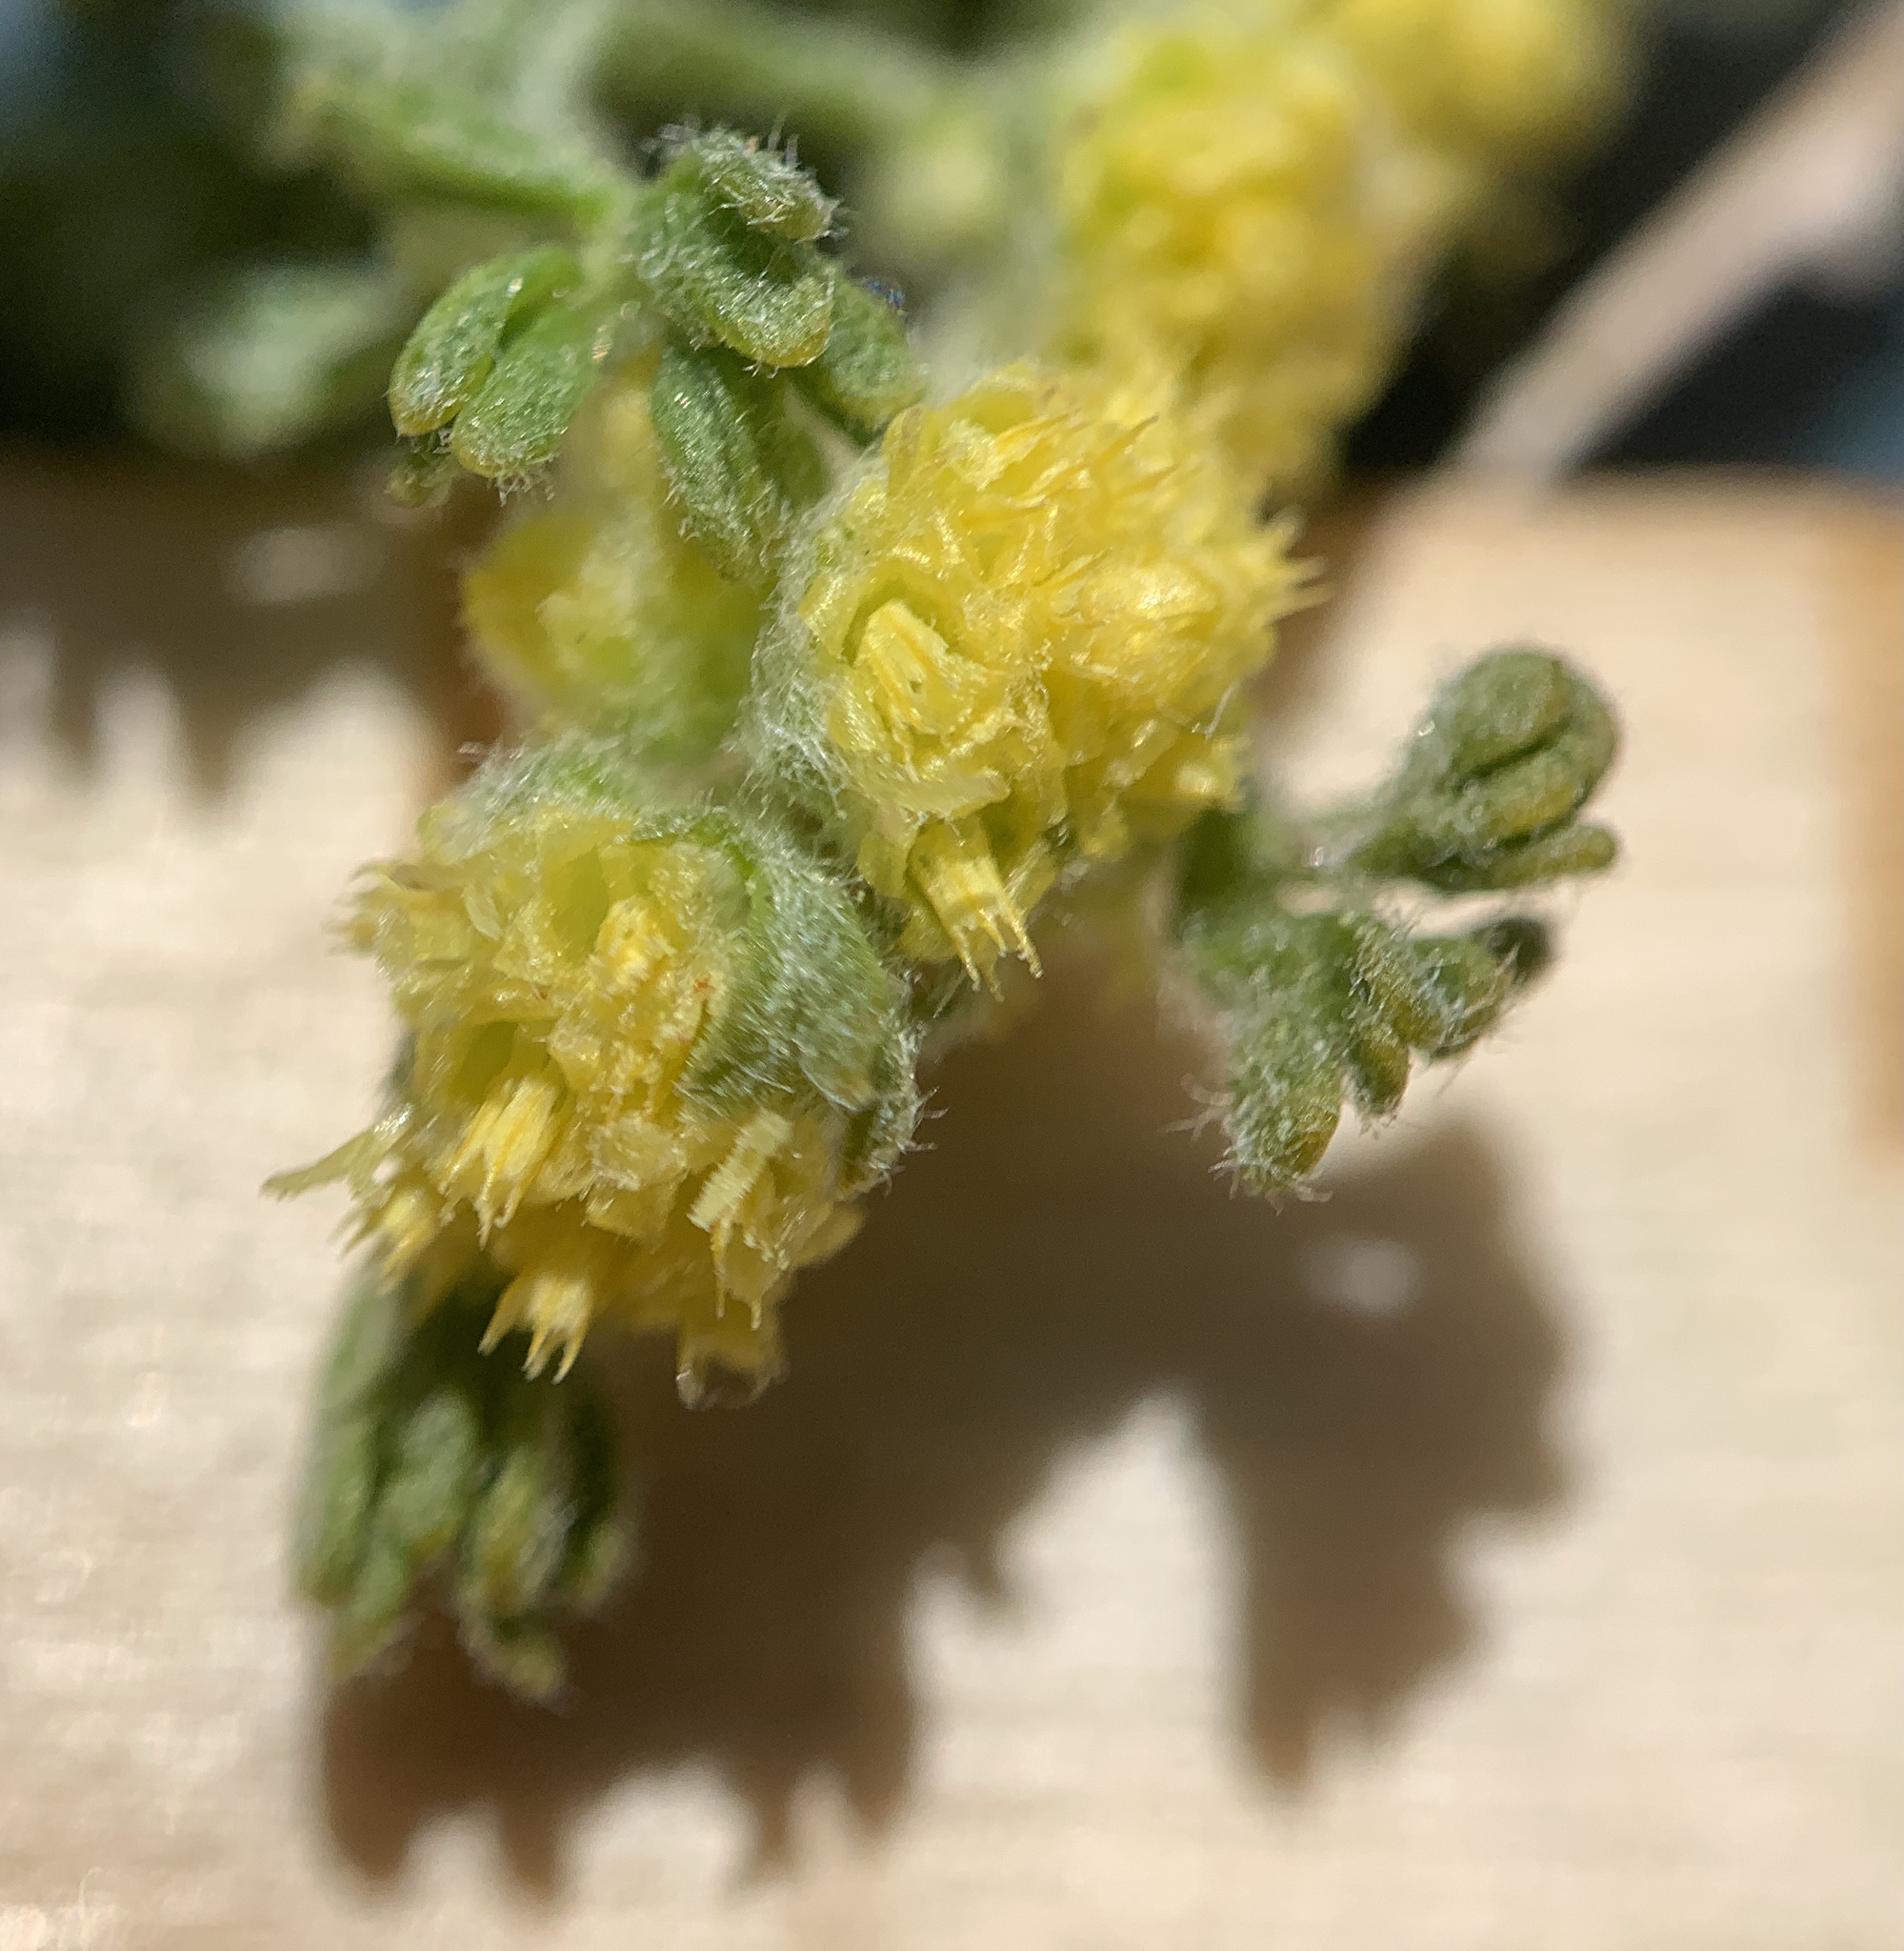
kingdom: Plantae
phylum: Tracheophyta
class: Magnoliopsida
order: Asterales
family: Asteraceae
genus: Artemisia
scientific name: Artemisia spinescens
